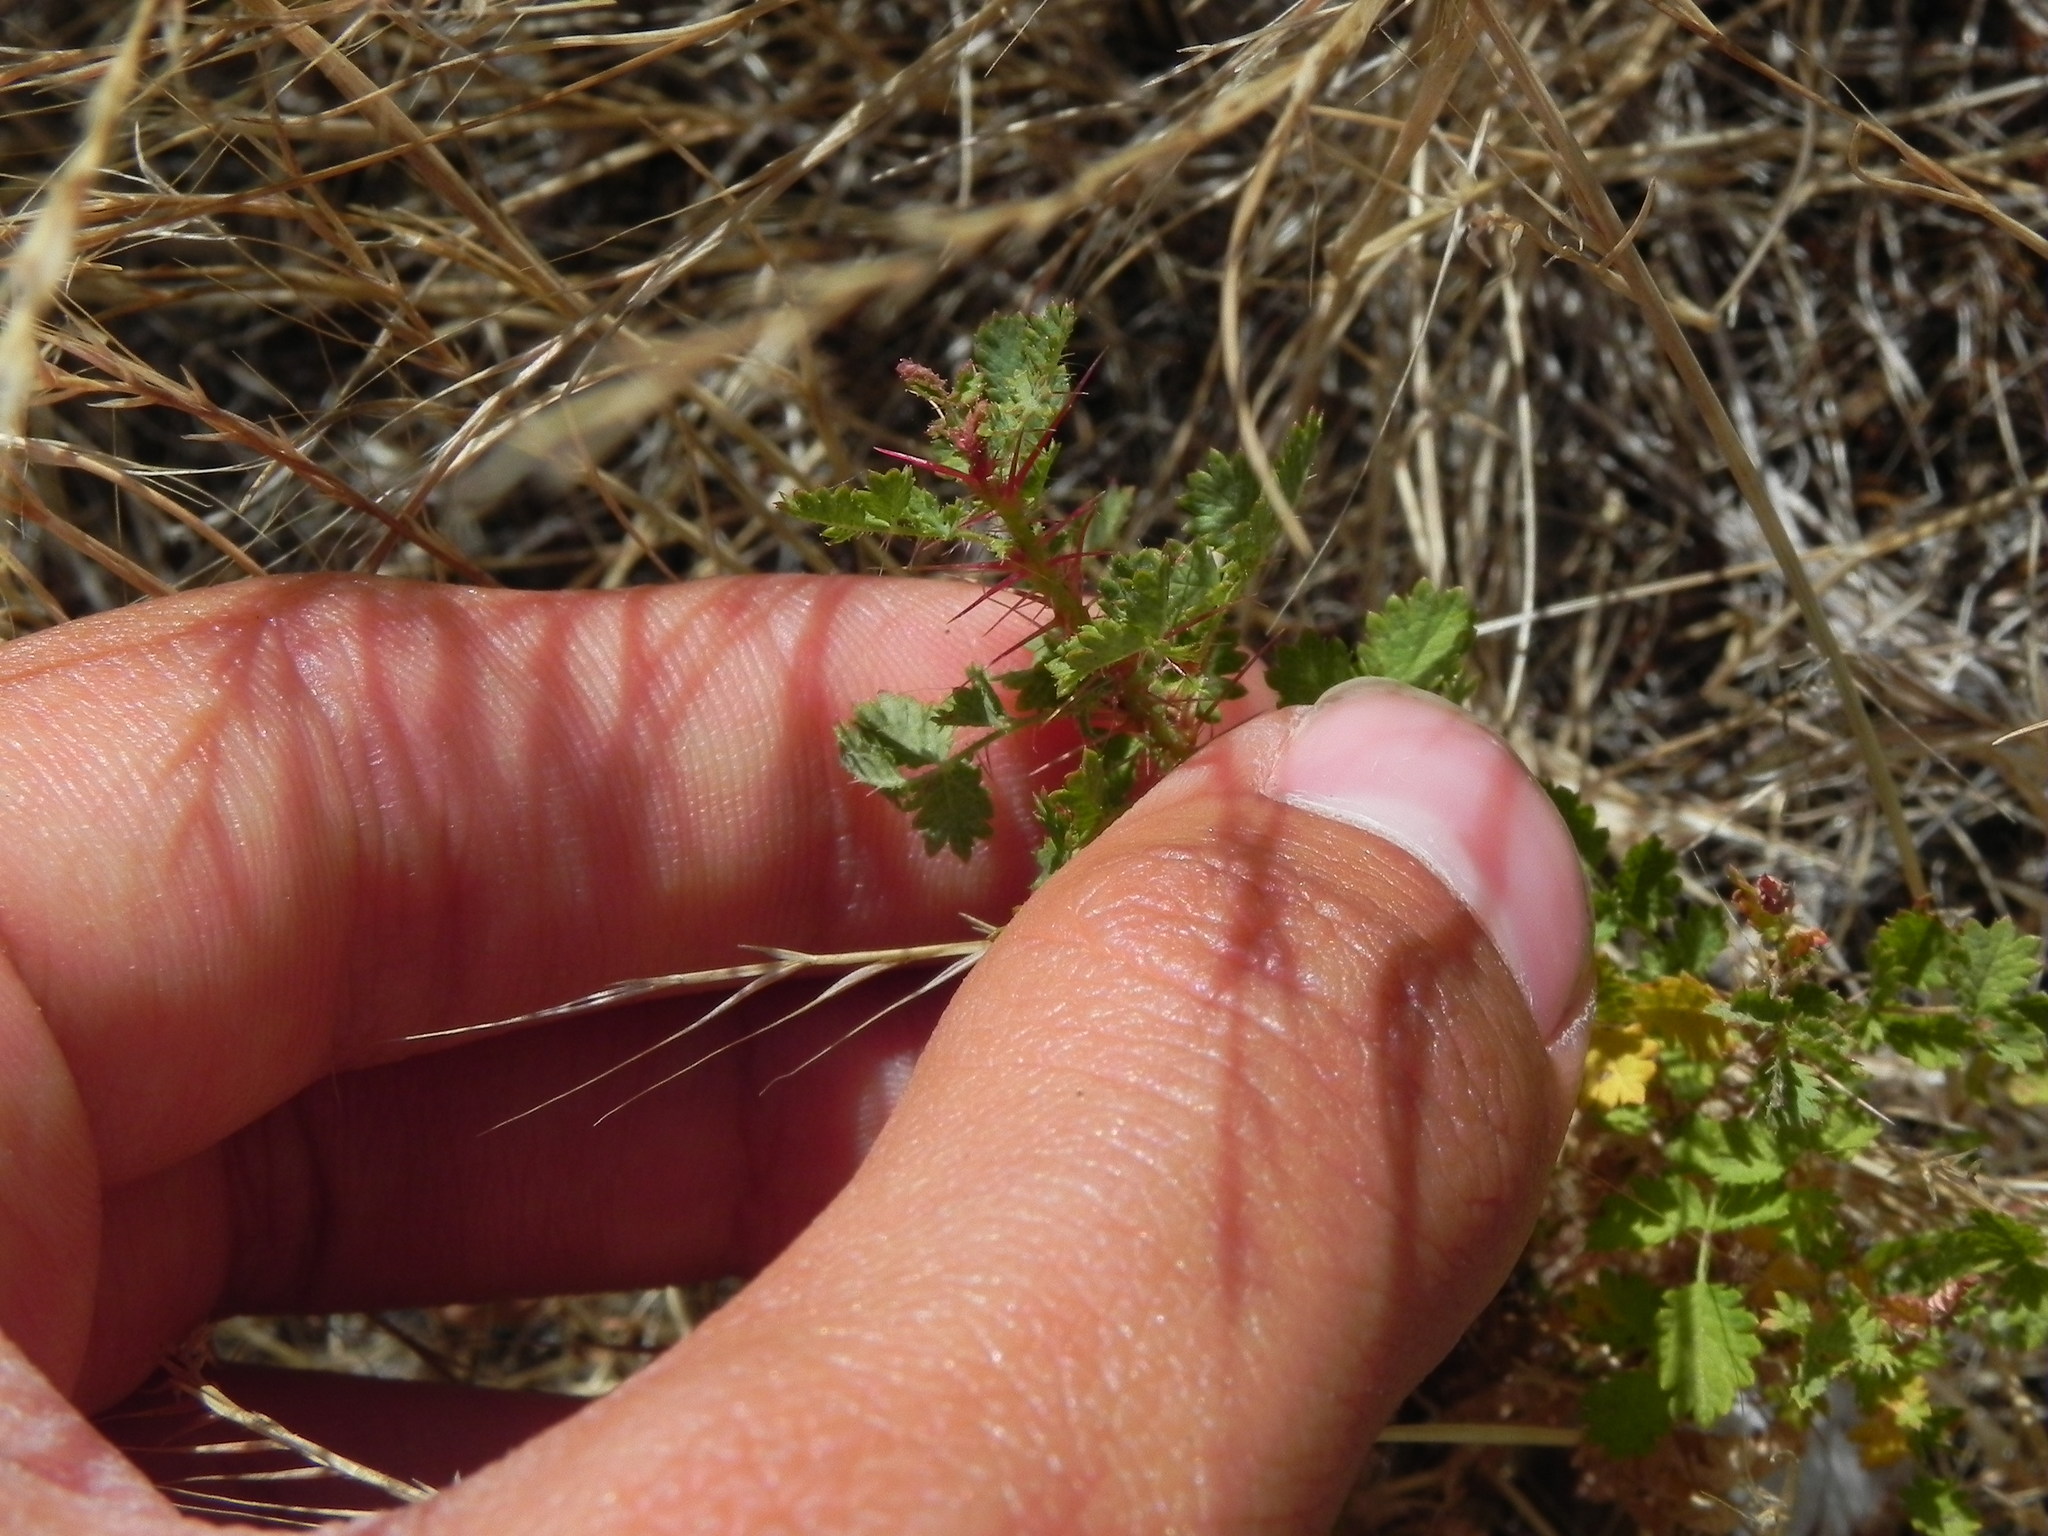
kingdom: Plantae
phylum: Tracheophyta
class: Magnoliopsida
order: Rosales
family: Rosaceae
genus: Rosa
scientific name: Rosa minutifolia
